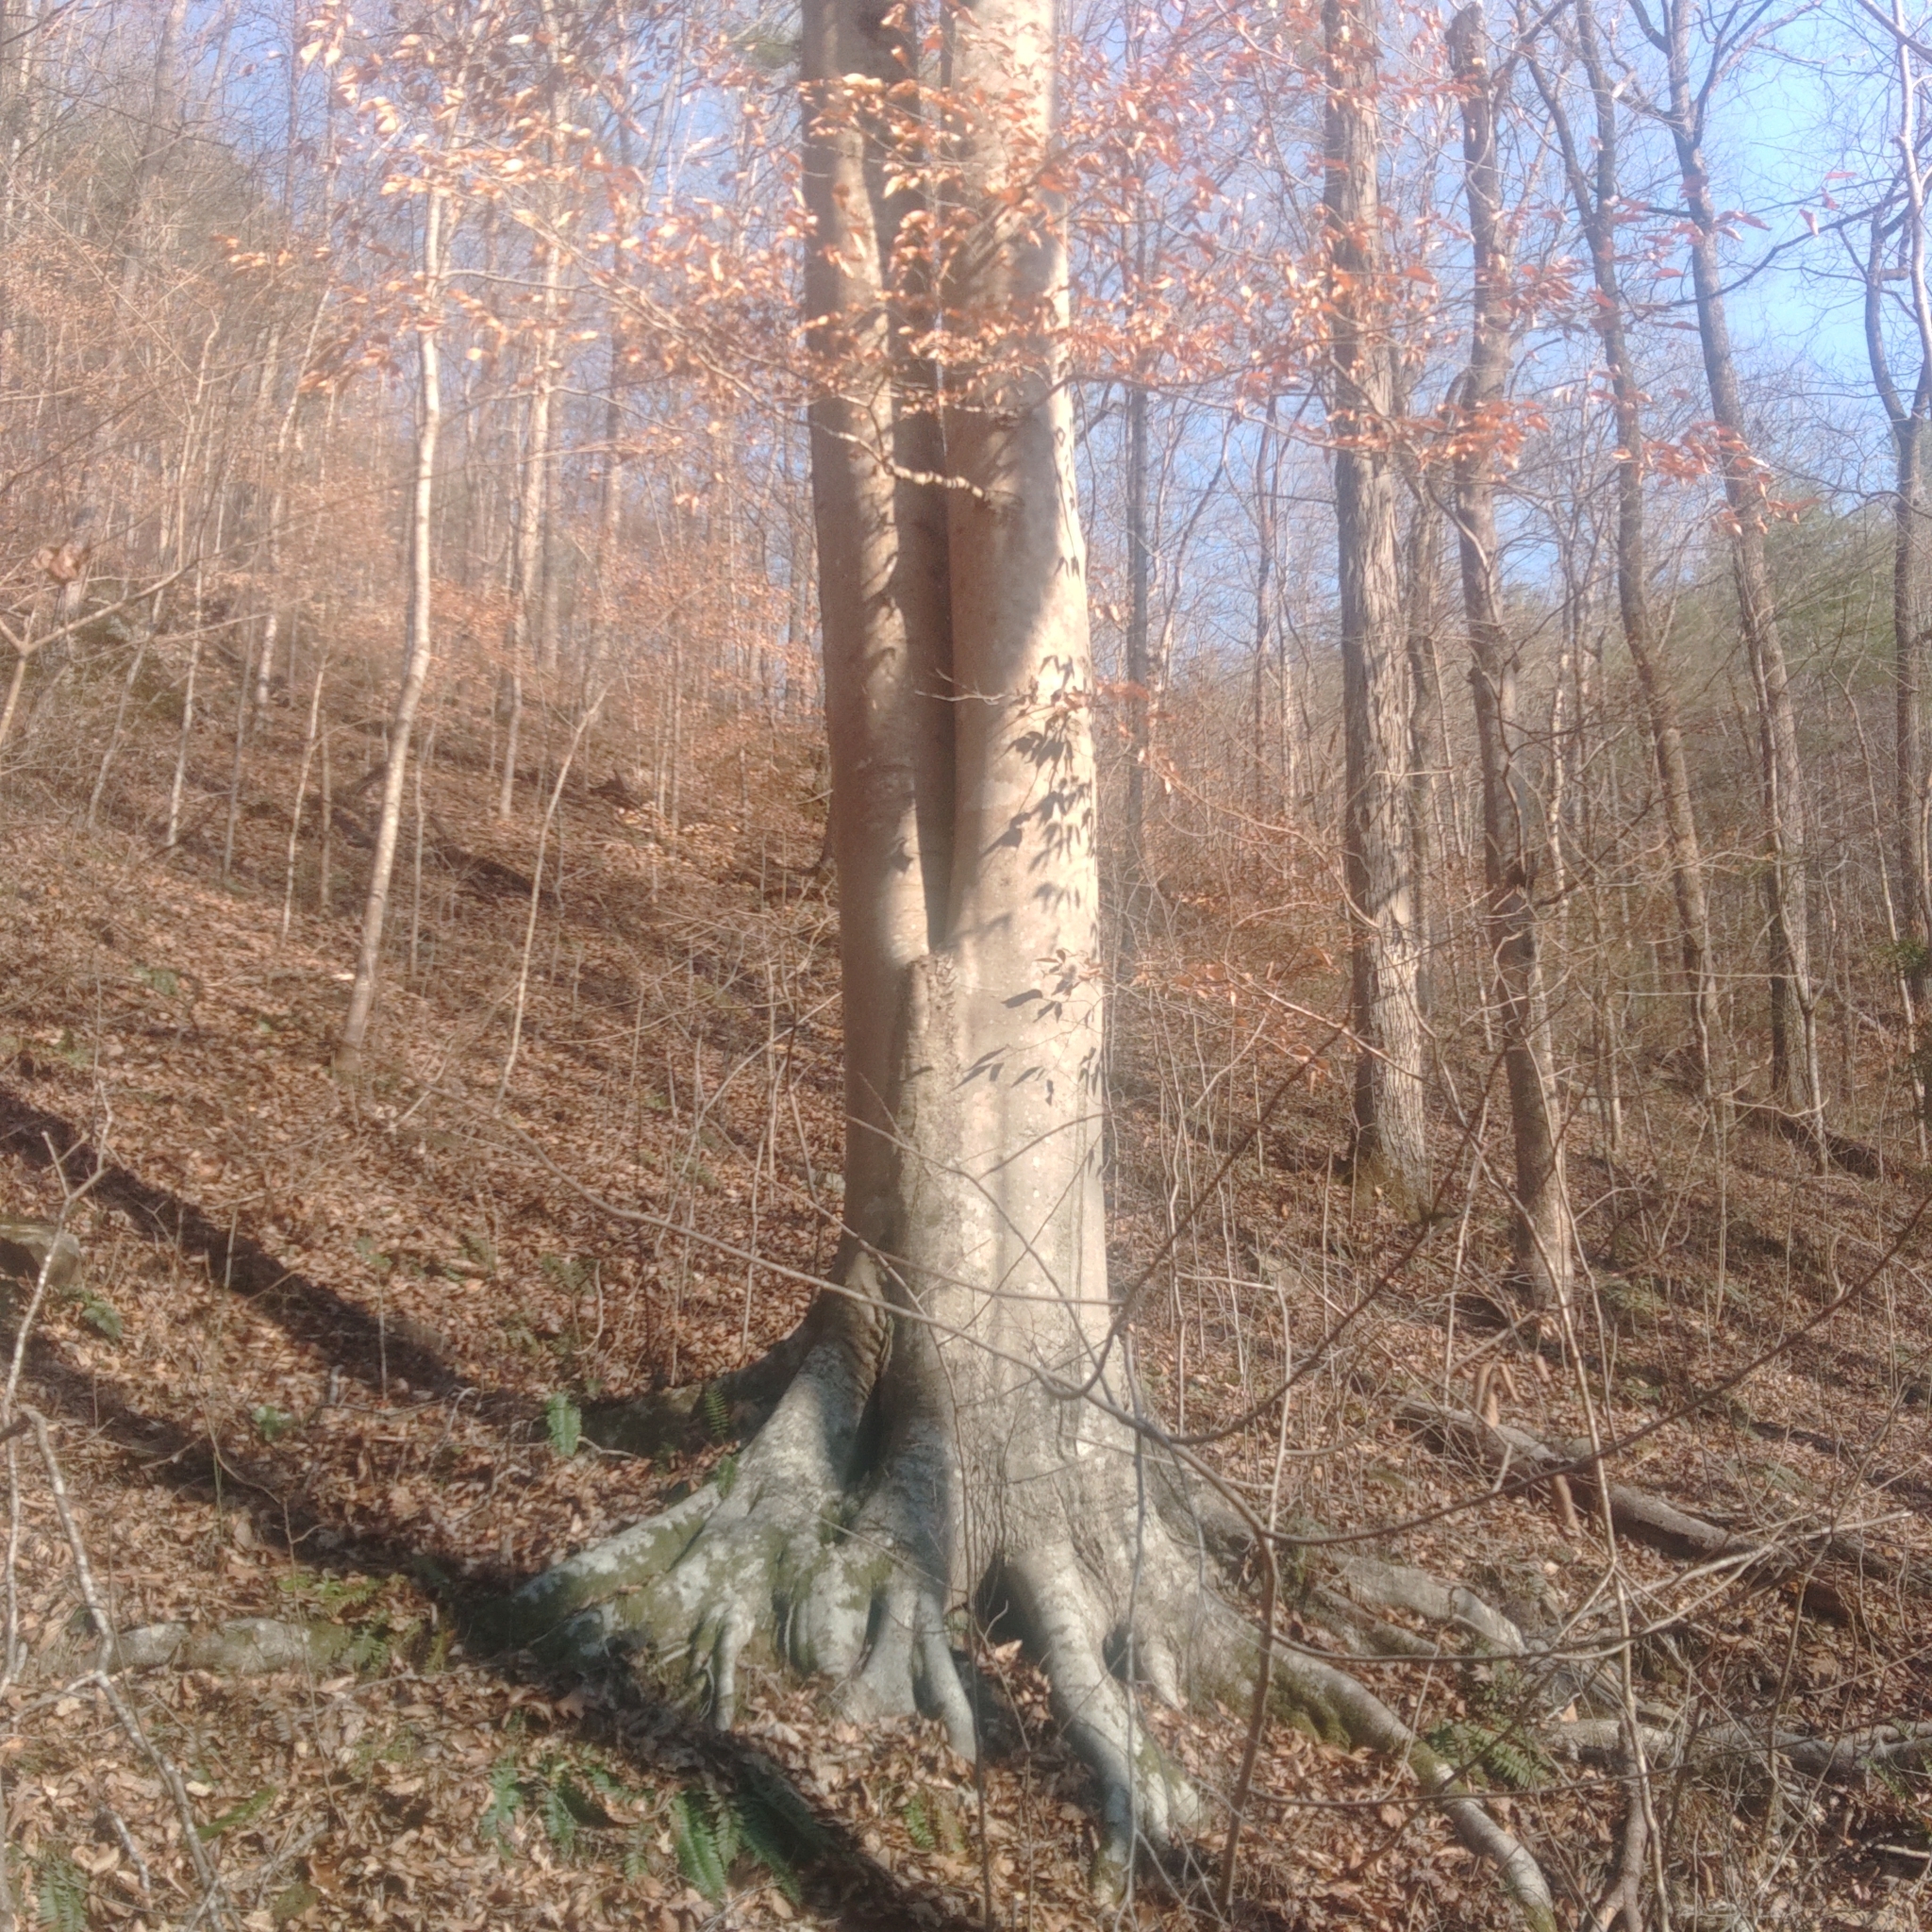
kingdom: Plantae
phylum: Tracheophyta
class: Magnoliopsida
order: Fagales
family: Fagaceae
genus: Fagus
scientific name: Fagus grandifolia
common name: American beech
